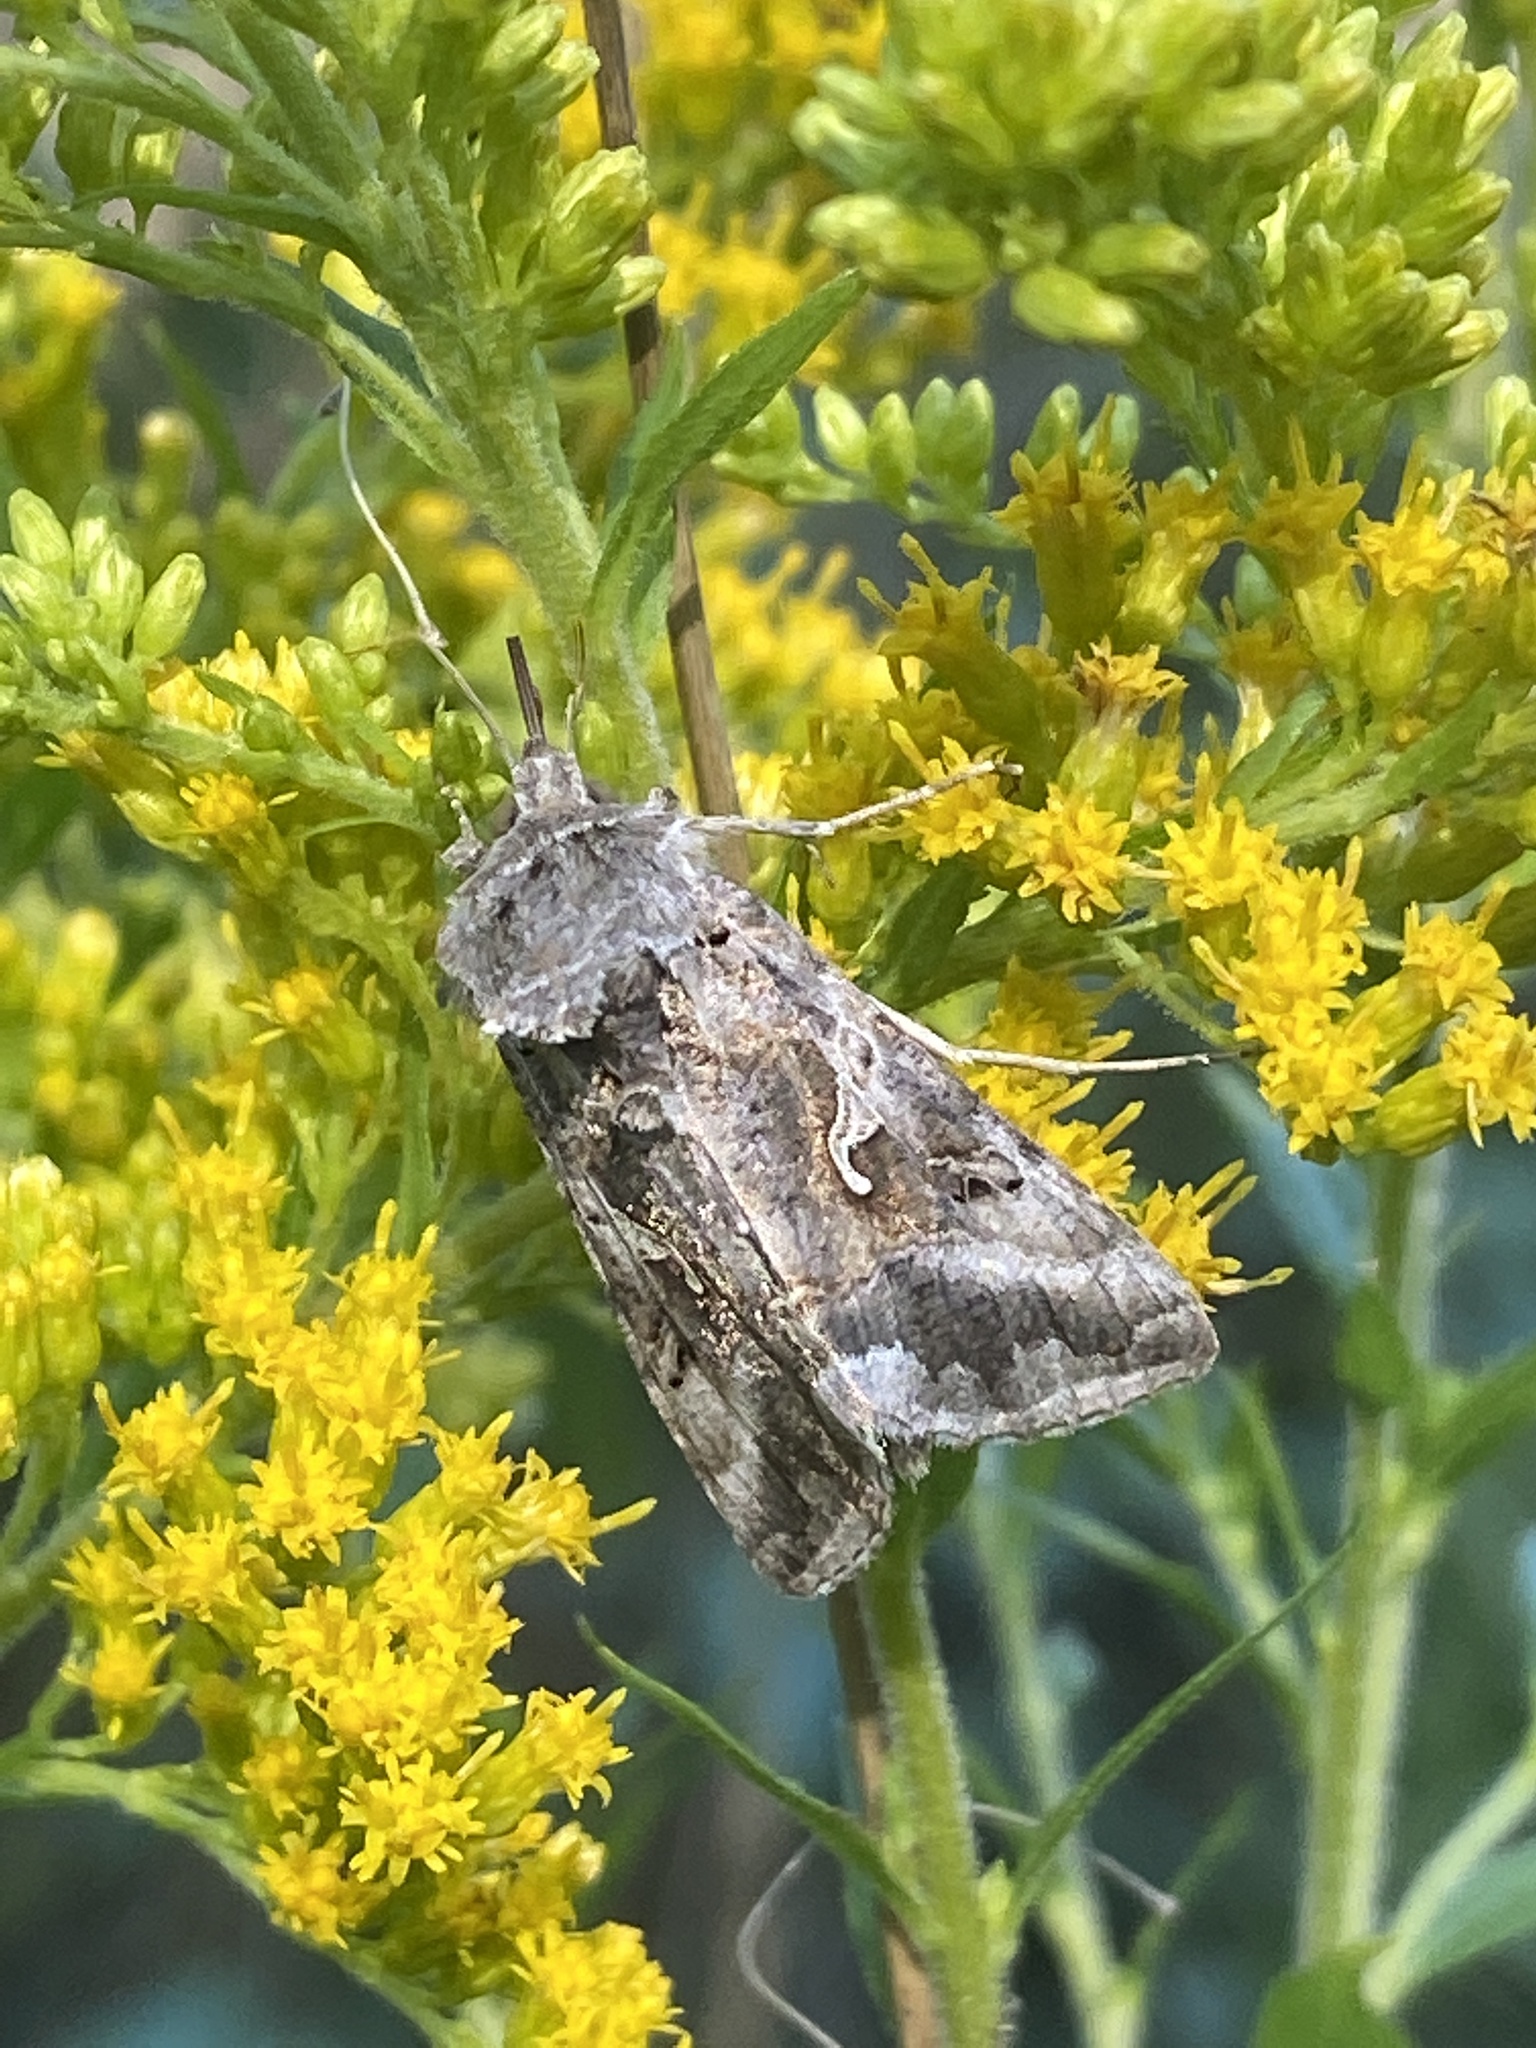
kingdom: Animalia
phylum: Arthropoda
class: Insecta
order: Lepidoptera
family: Noctuidae
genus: Autographa
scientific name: Autographa gamma
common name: Silver y
